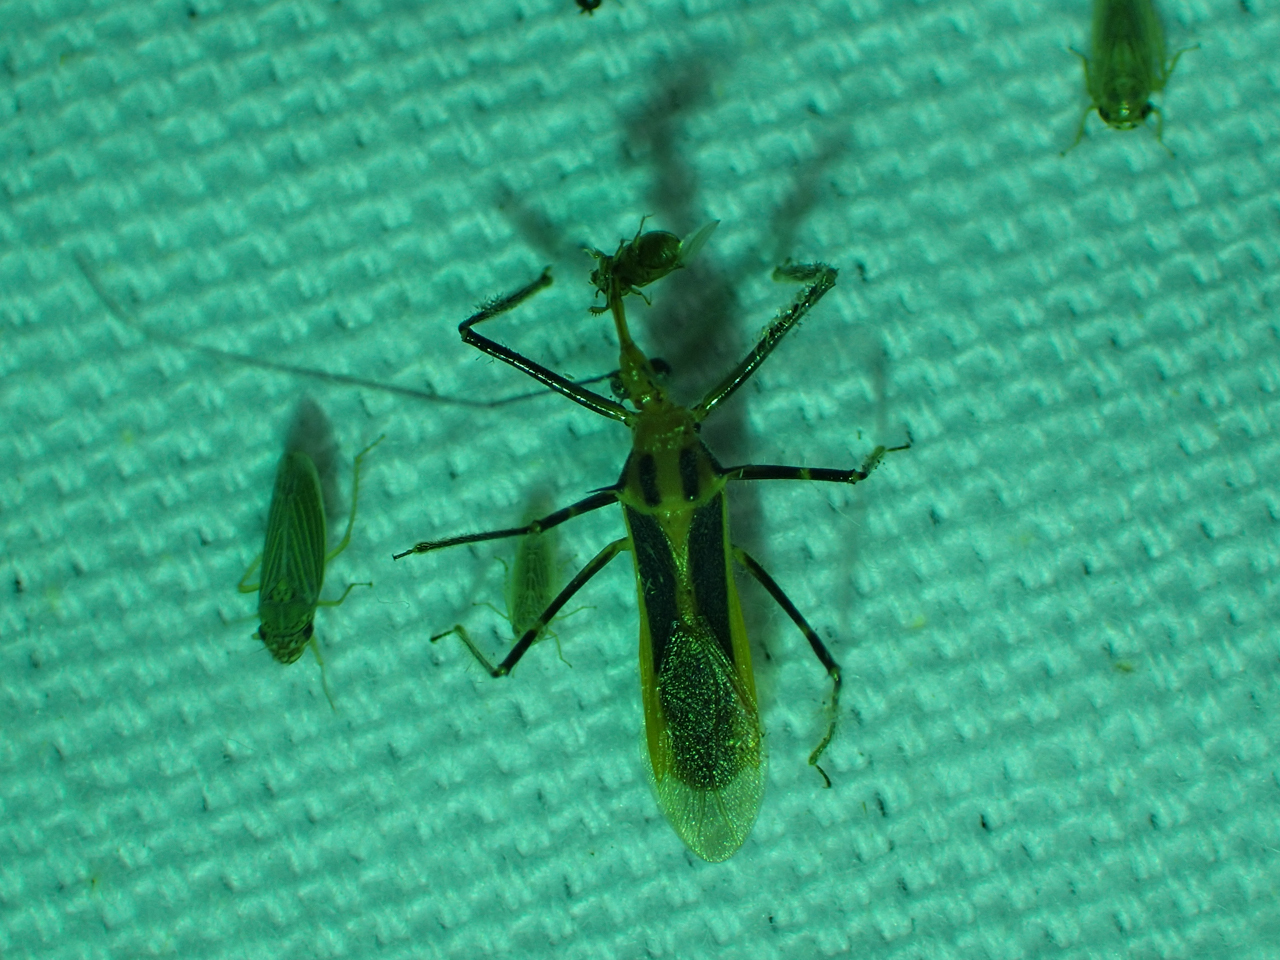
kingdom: Animalia
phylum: Arthropoda
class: Insecta
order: Hemiptera
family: Reduviidae
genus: Repipta
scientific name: Repipta taurus
